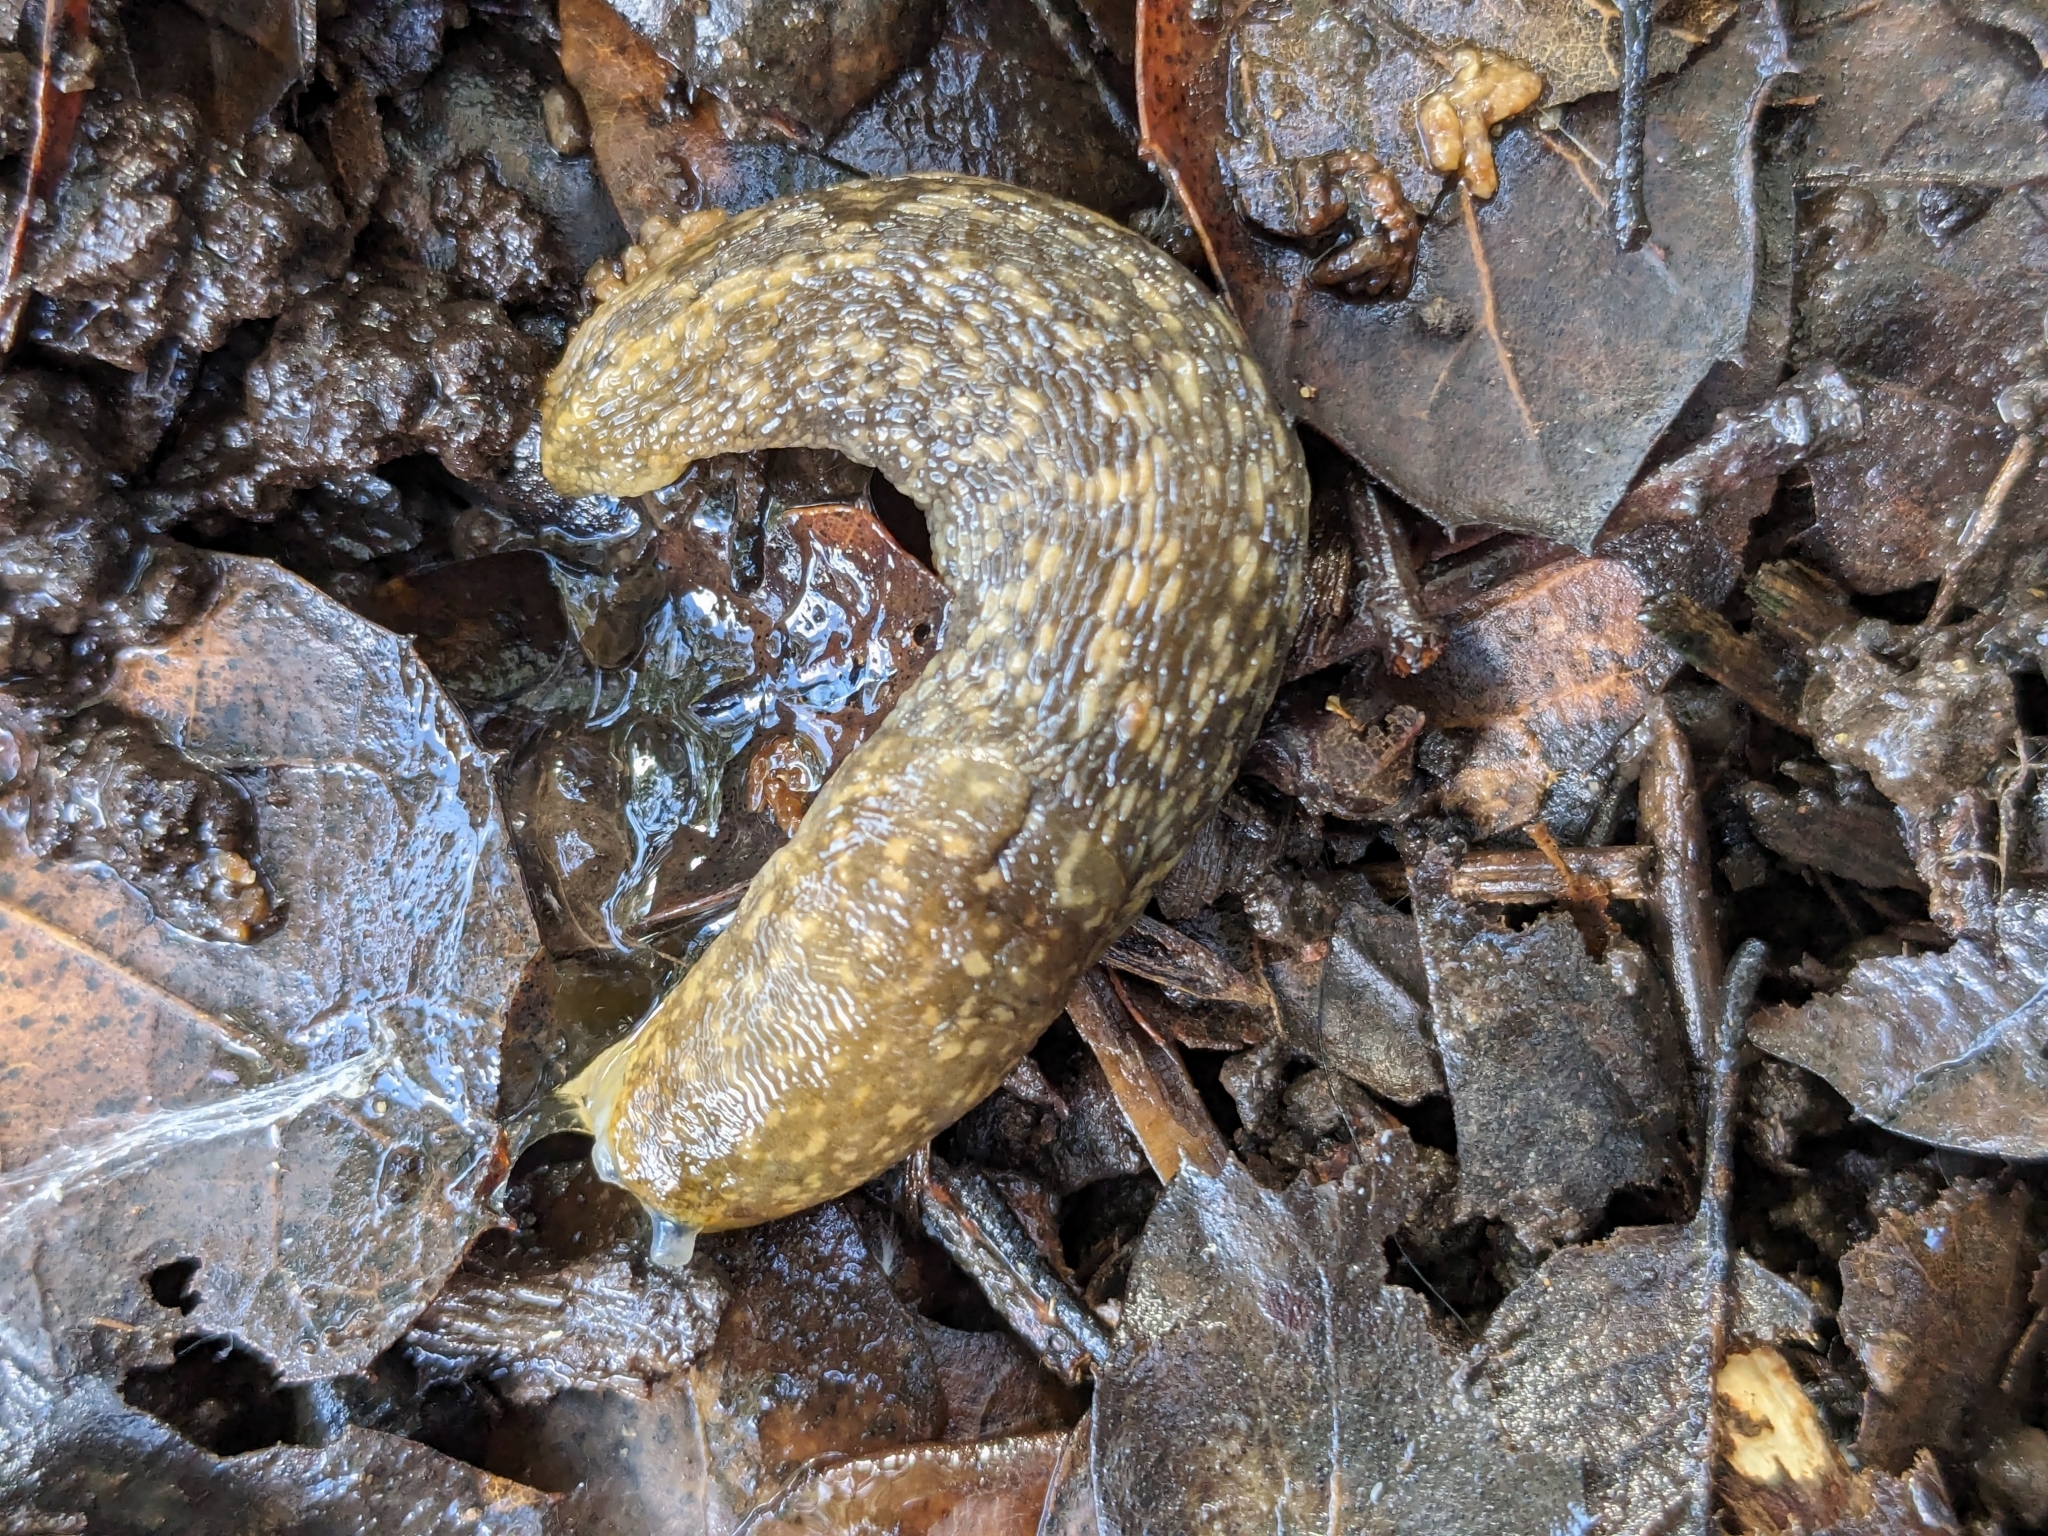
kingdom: Animalia
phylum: Mollusca
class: Gastropoda
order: Stylommatophora
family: Limacidae
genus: Limacus
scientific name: Limacus flavus
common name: Yellow gardenslug
